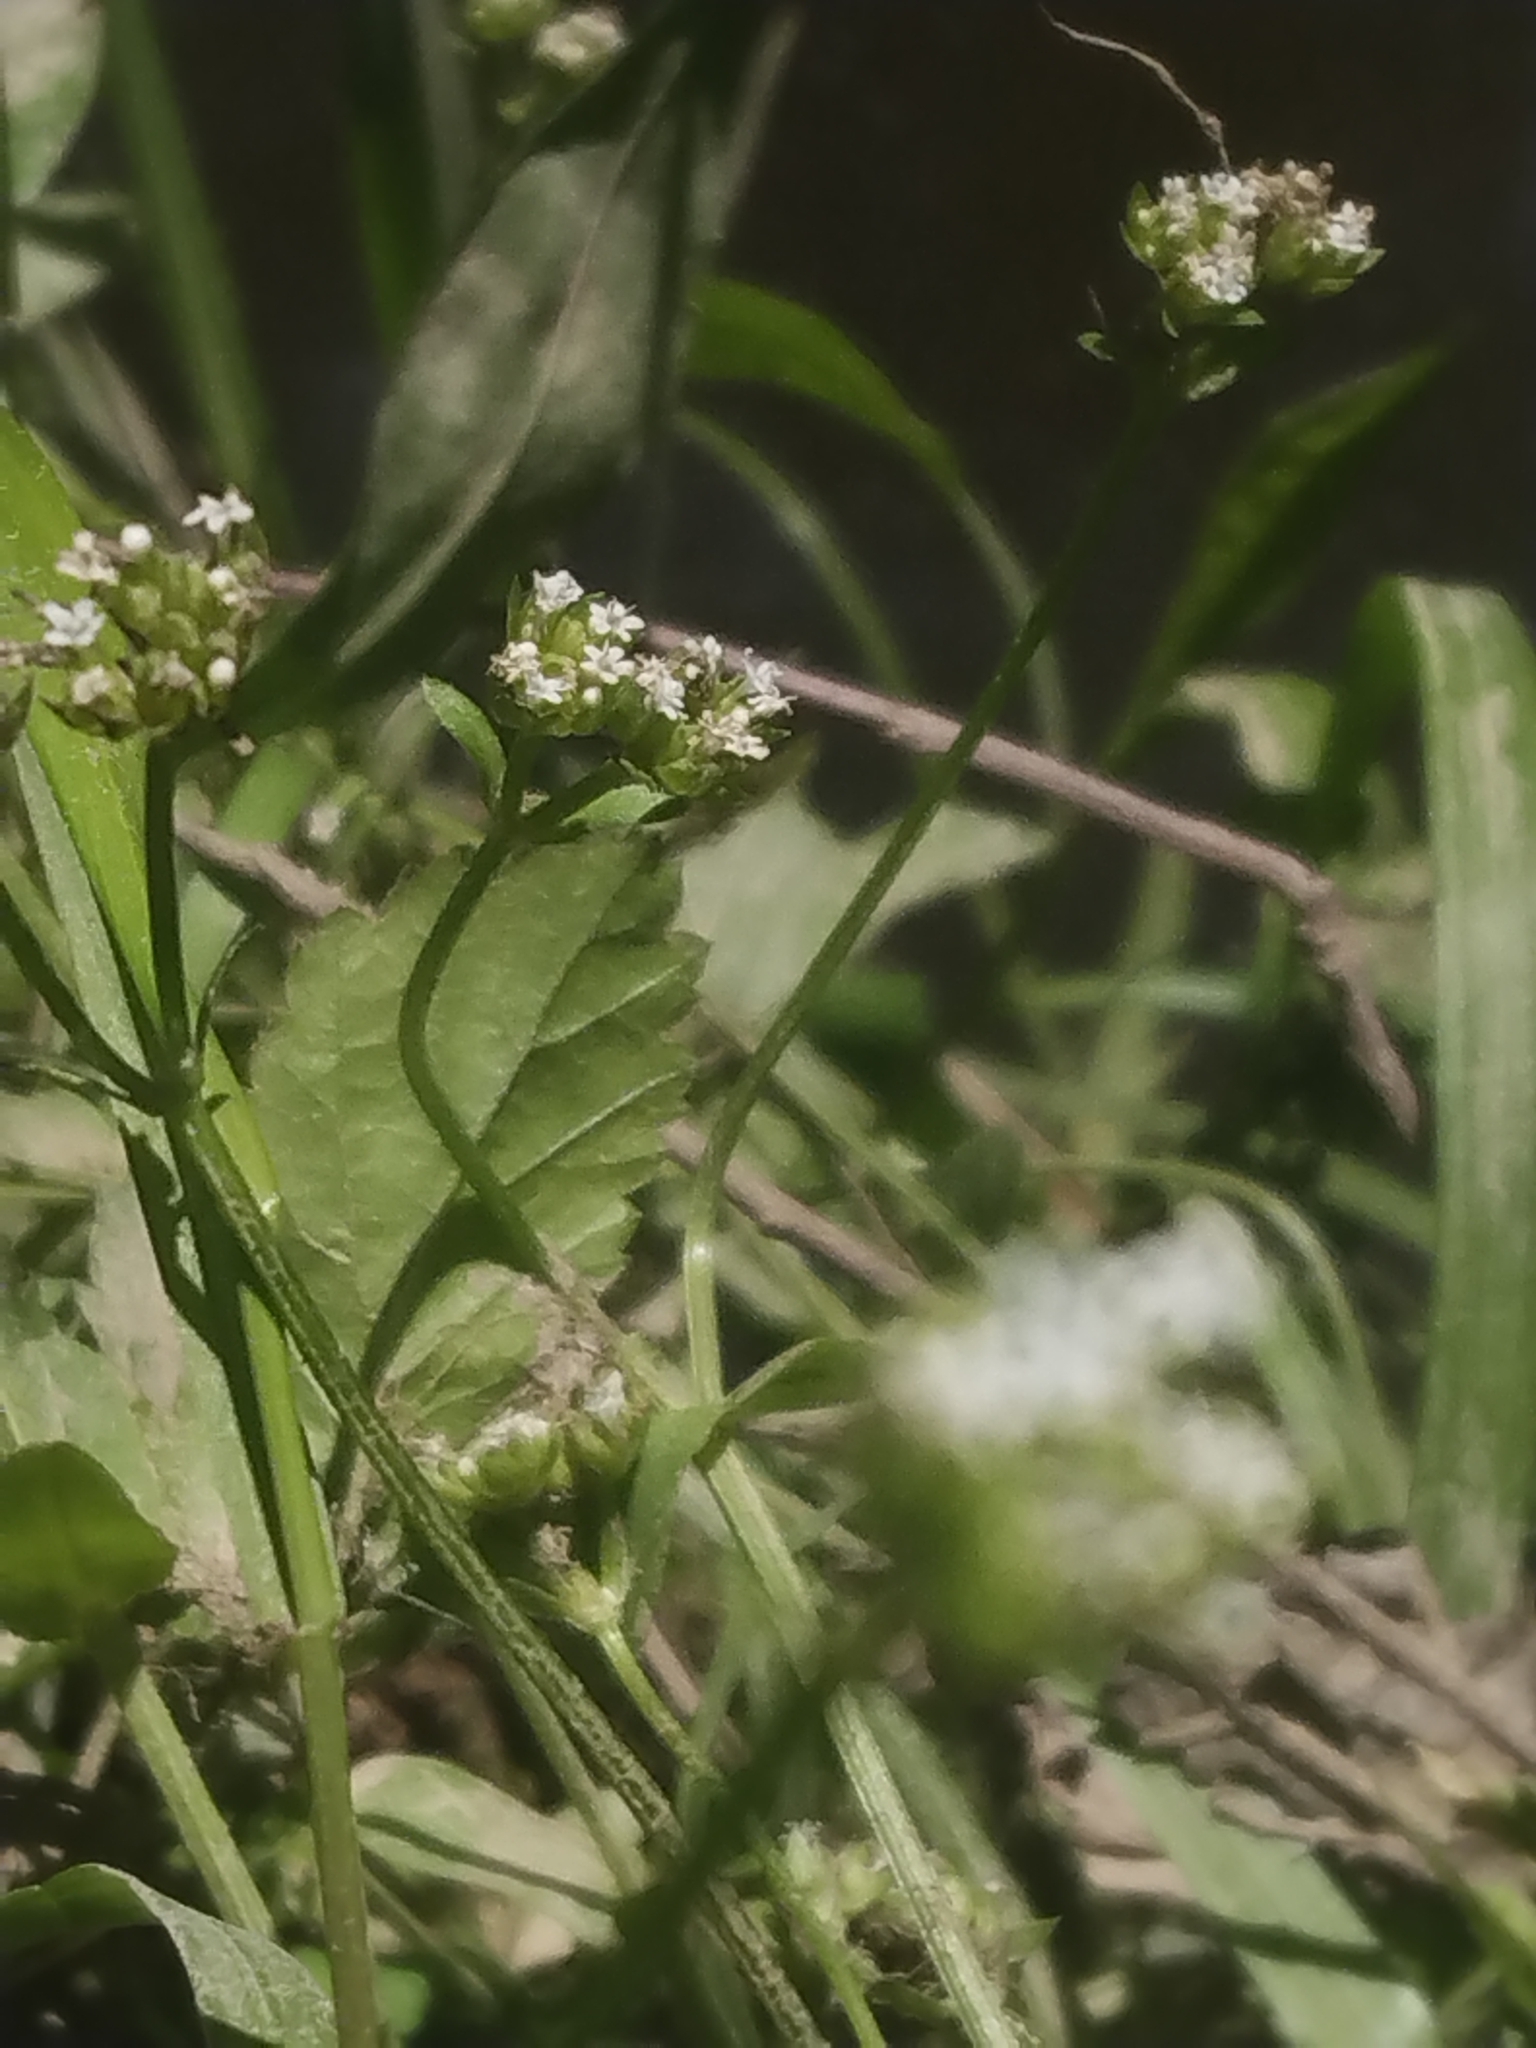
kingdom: Plantae
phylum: Tracheophyta
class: Magnoliopsida
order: Dipsacales
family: Caprifoliaceae
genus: Valerianella
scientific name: Valerianella radiata
